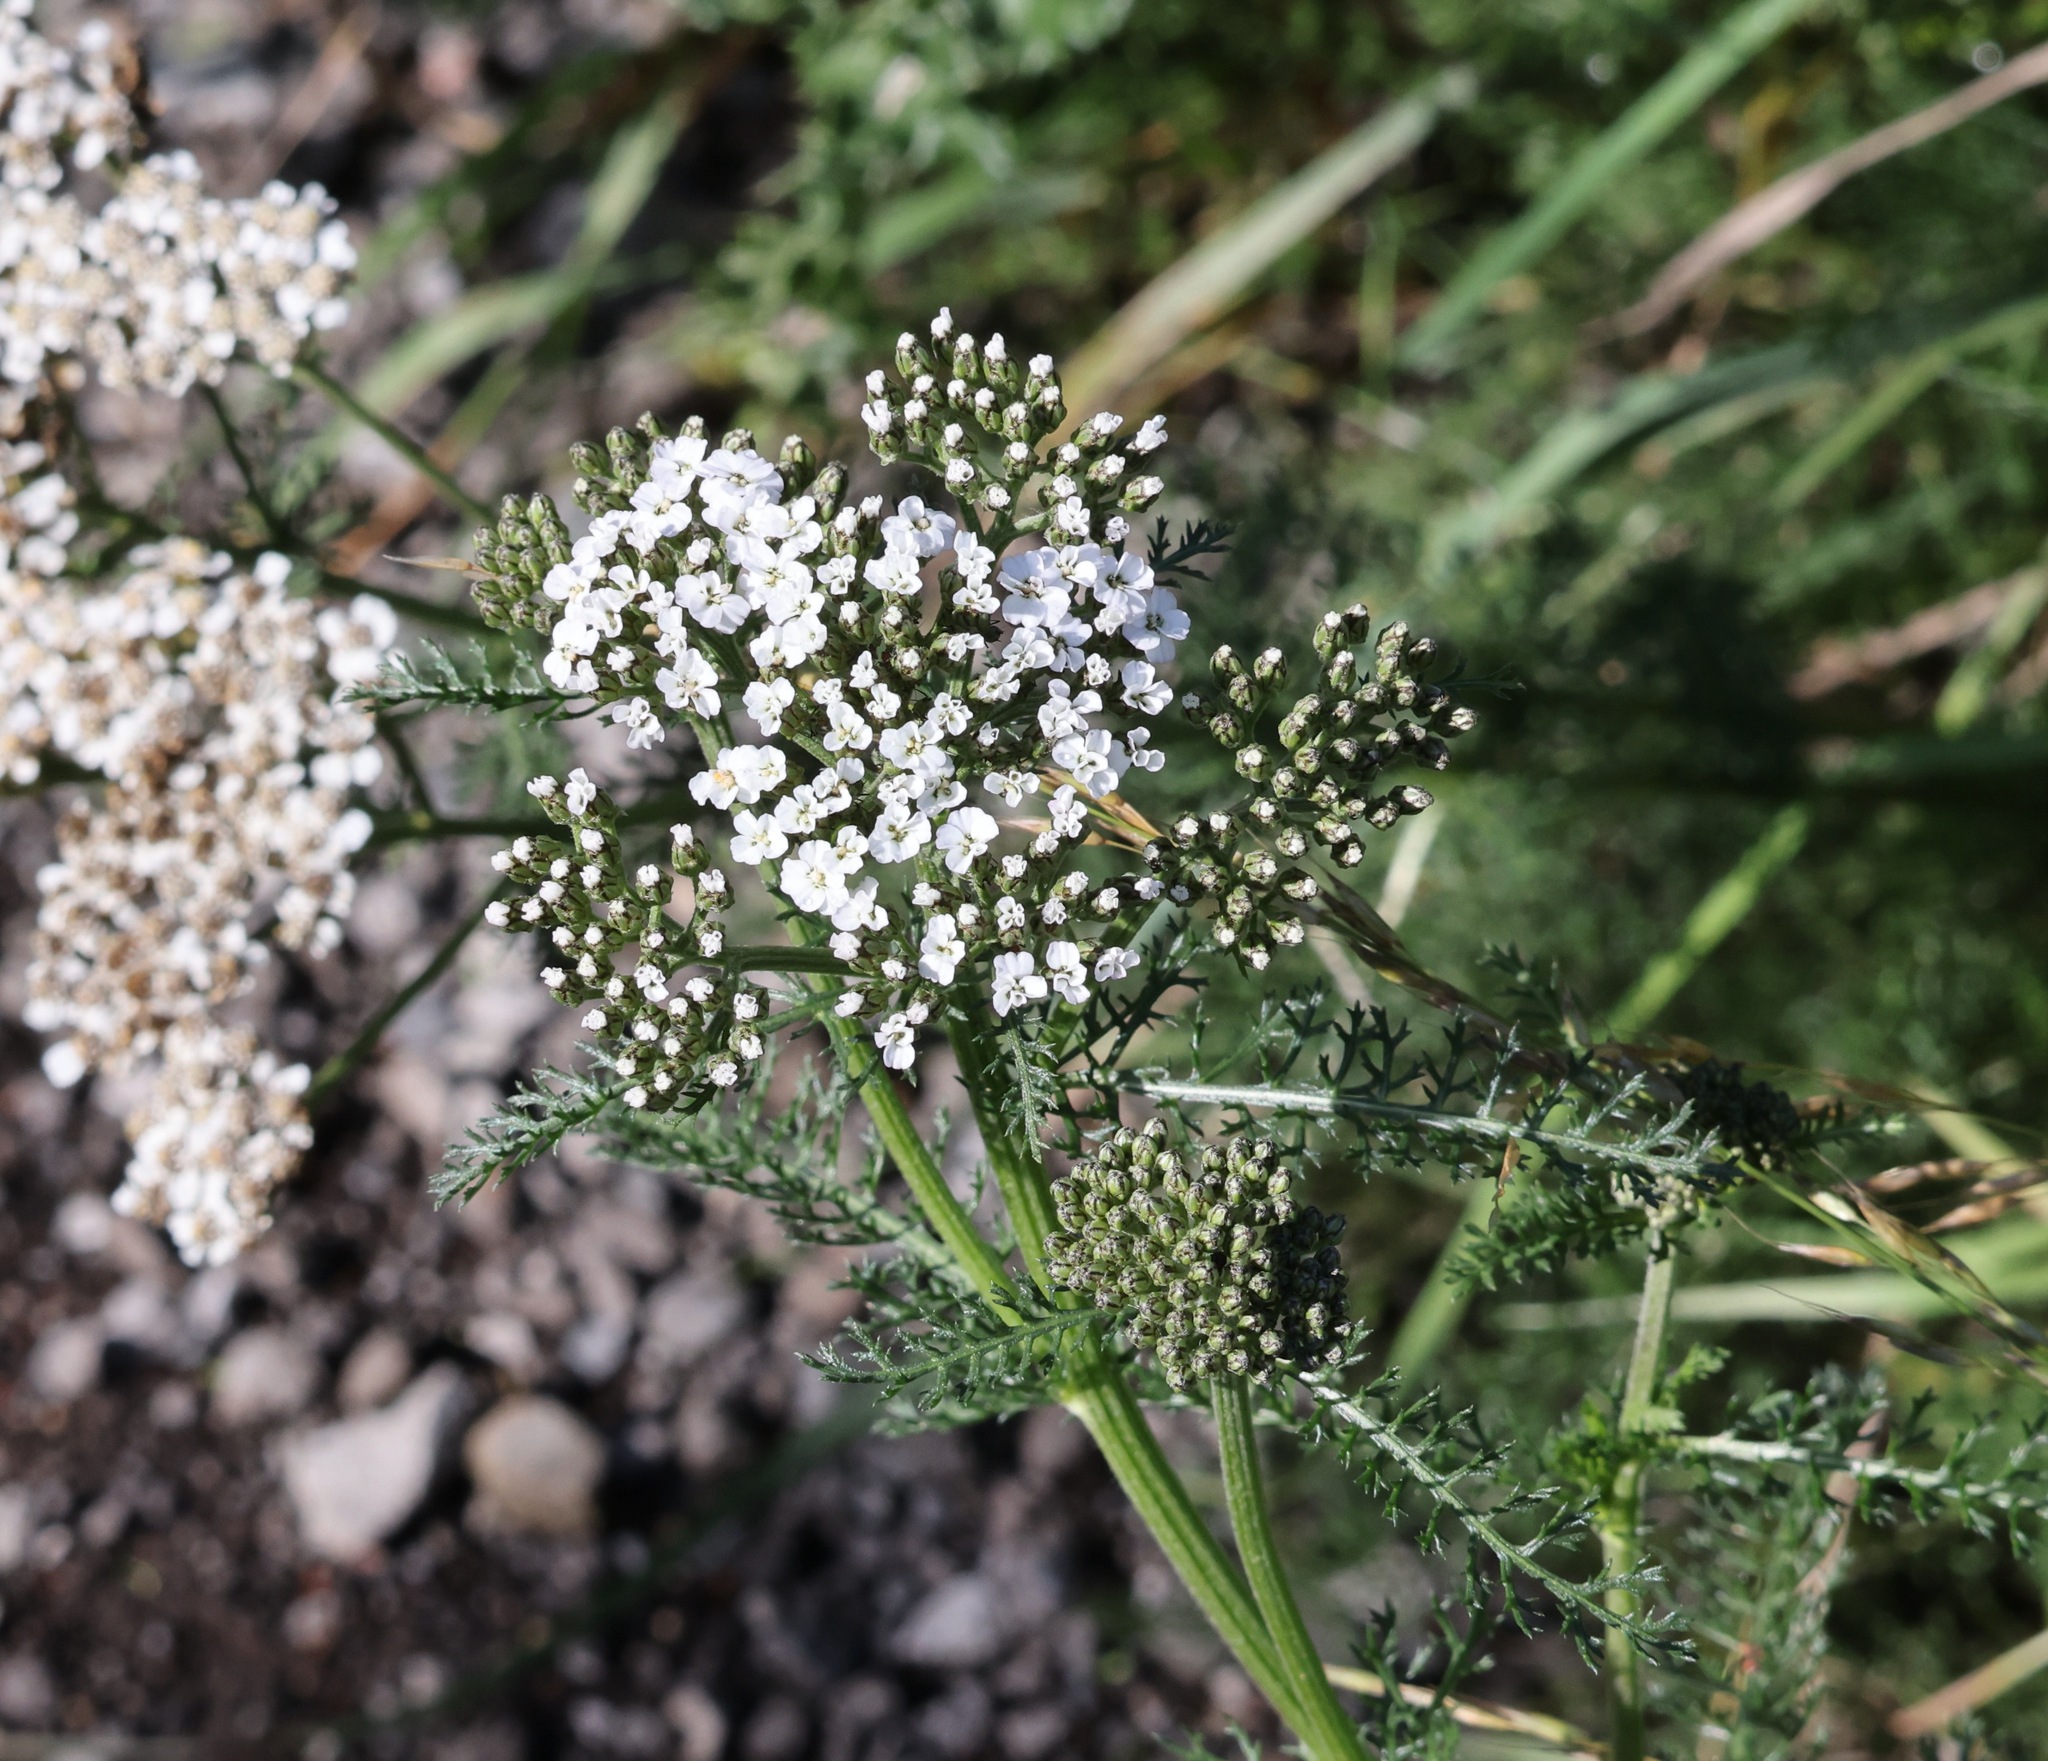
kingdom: Plantae
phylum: Tracheophyta
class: Magnoliopsida
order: Asterales
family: Asteraceae
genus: Achillea
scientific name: Achillea millefolium
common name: Yarrow
